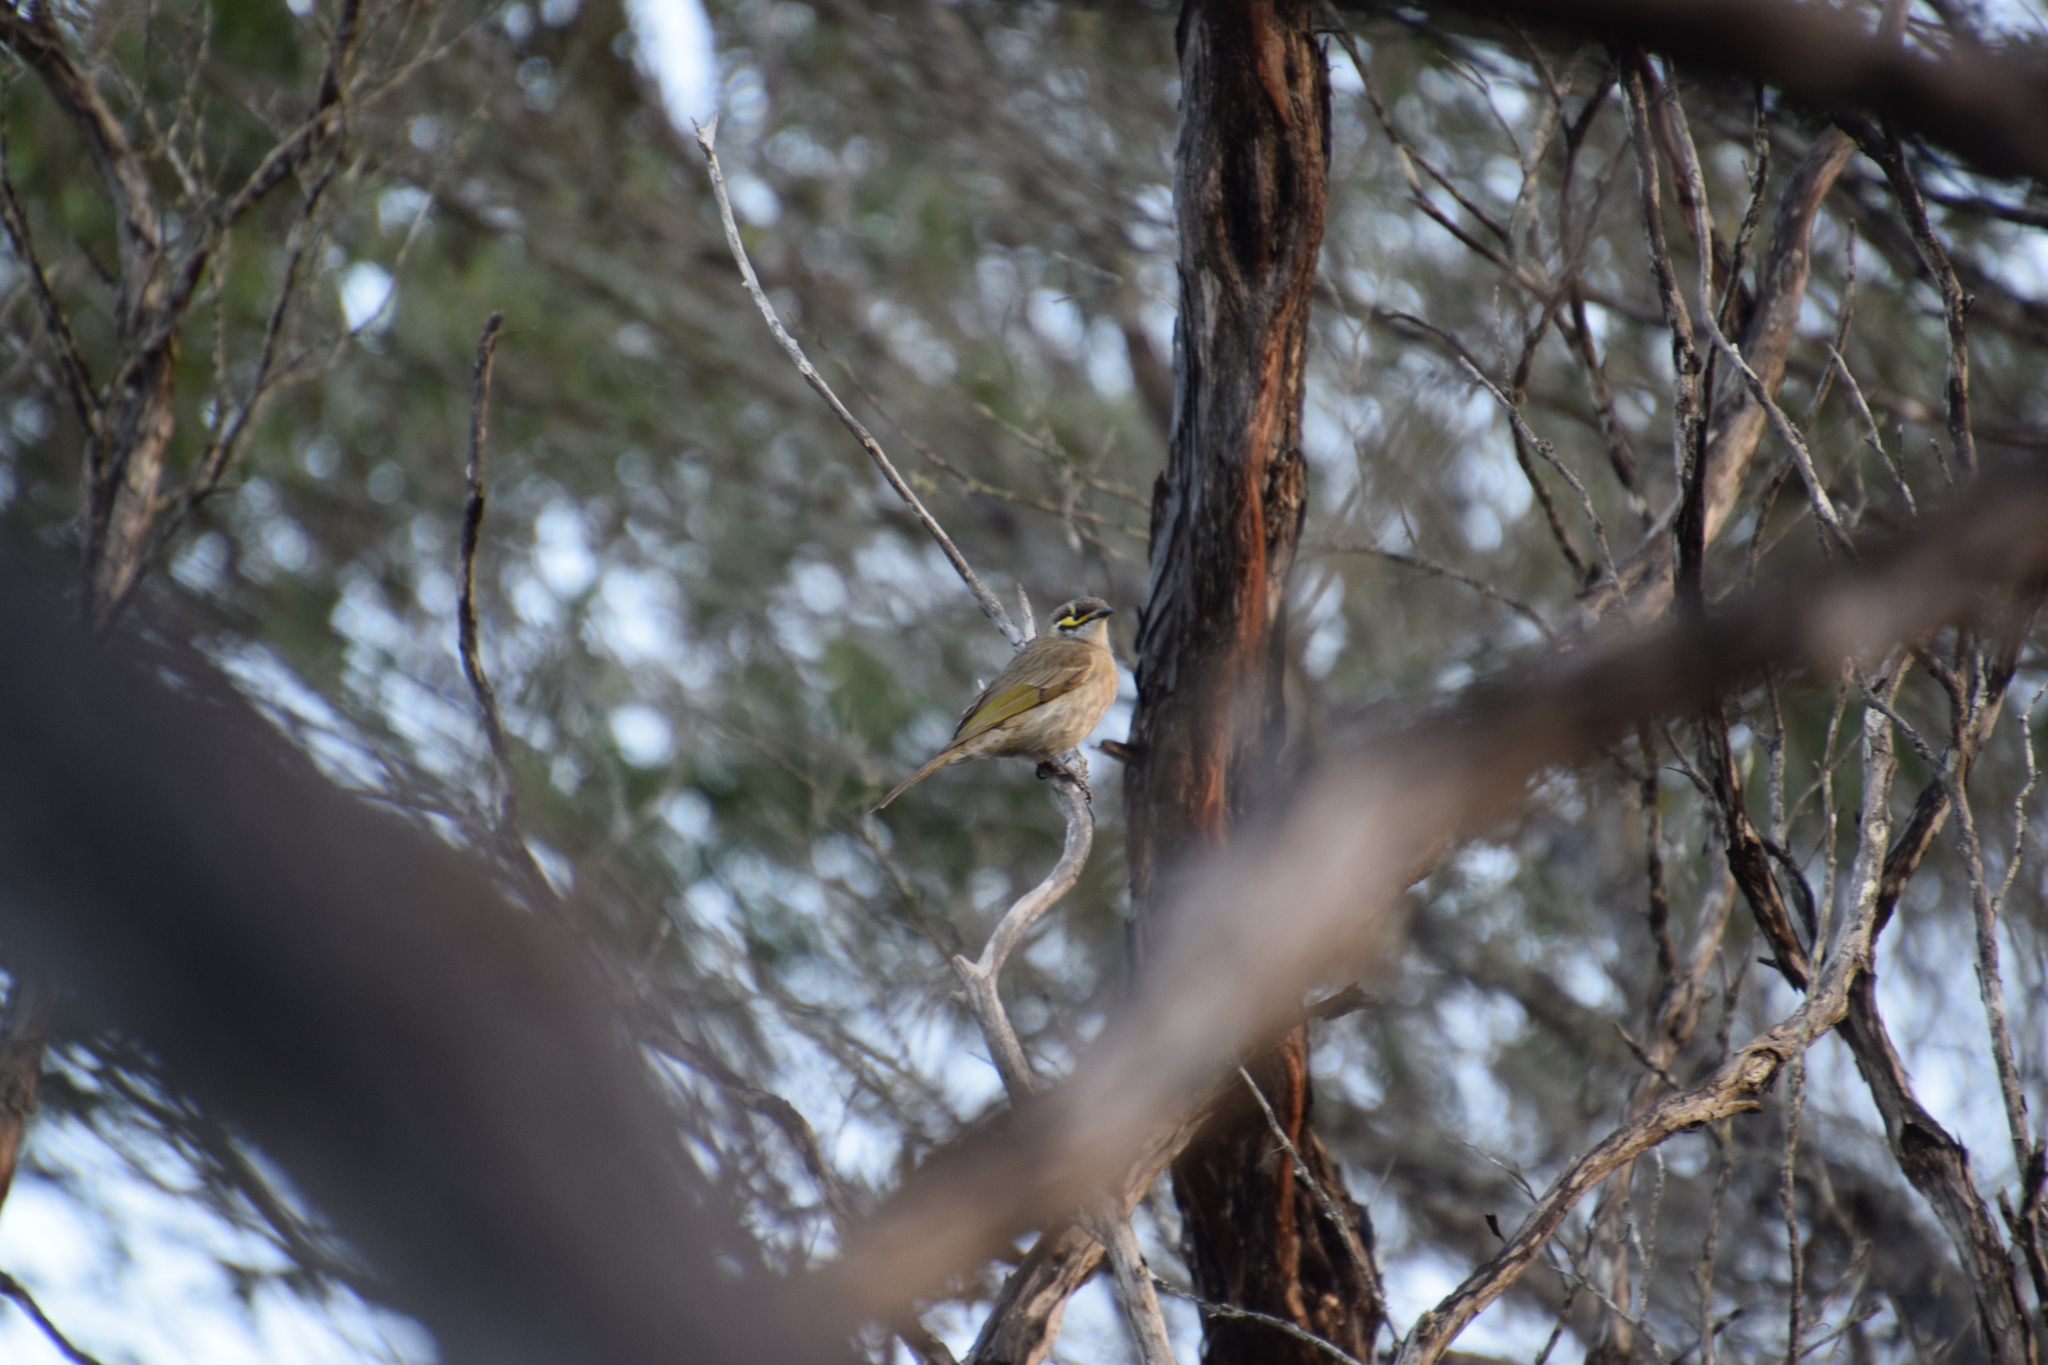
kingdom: Animalia
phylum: Chordata
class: Aves
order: Passeriformes
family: Meliphagidae
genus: Caligavis
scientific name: Caligavis chrysops
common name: Yellow-faced honeyeater
